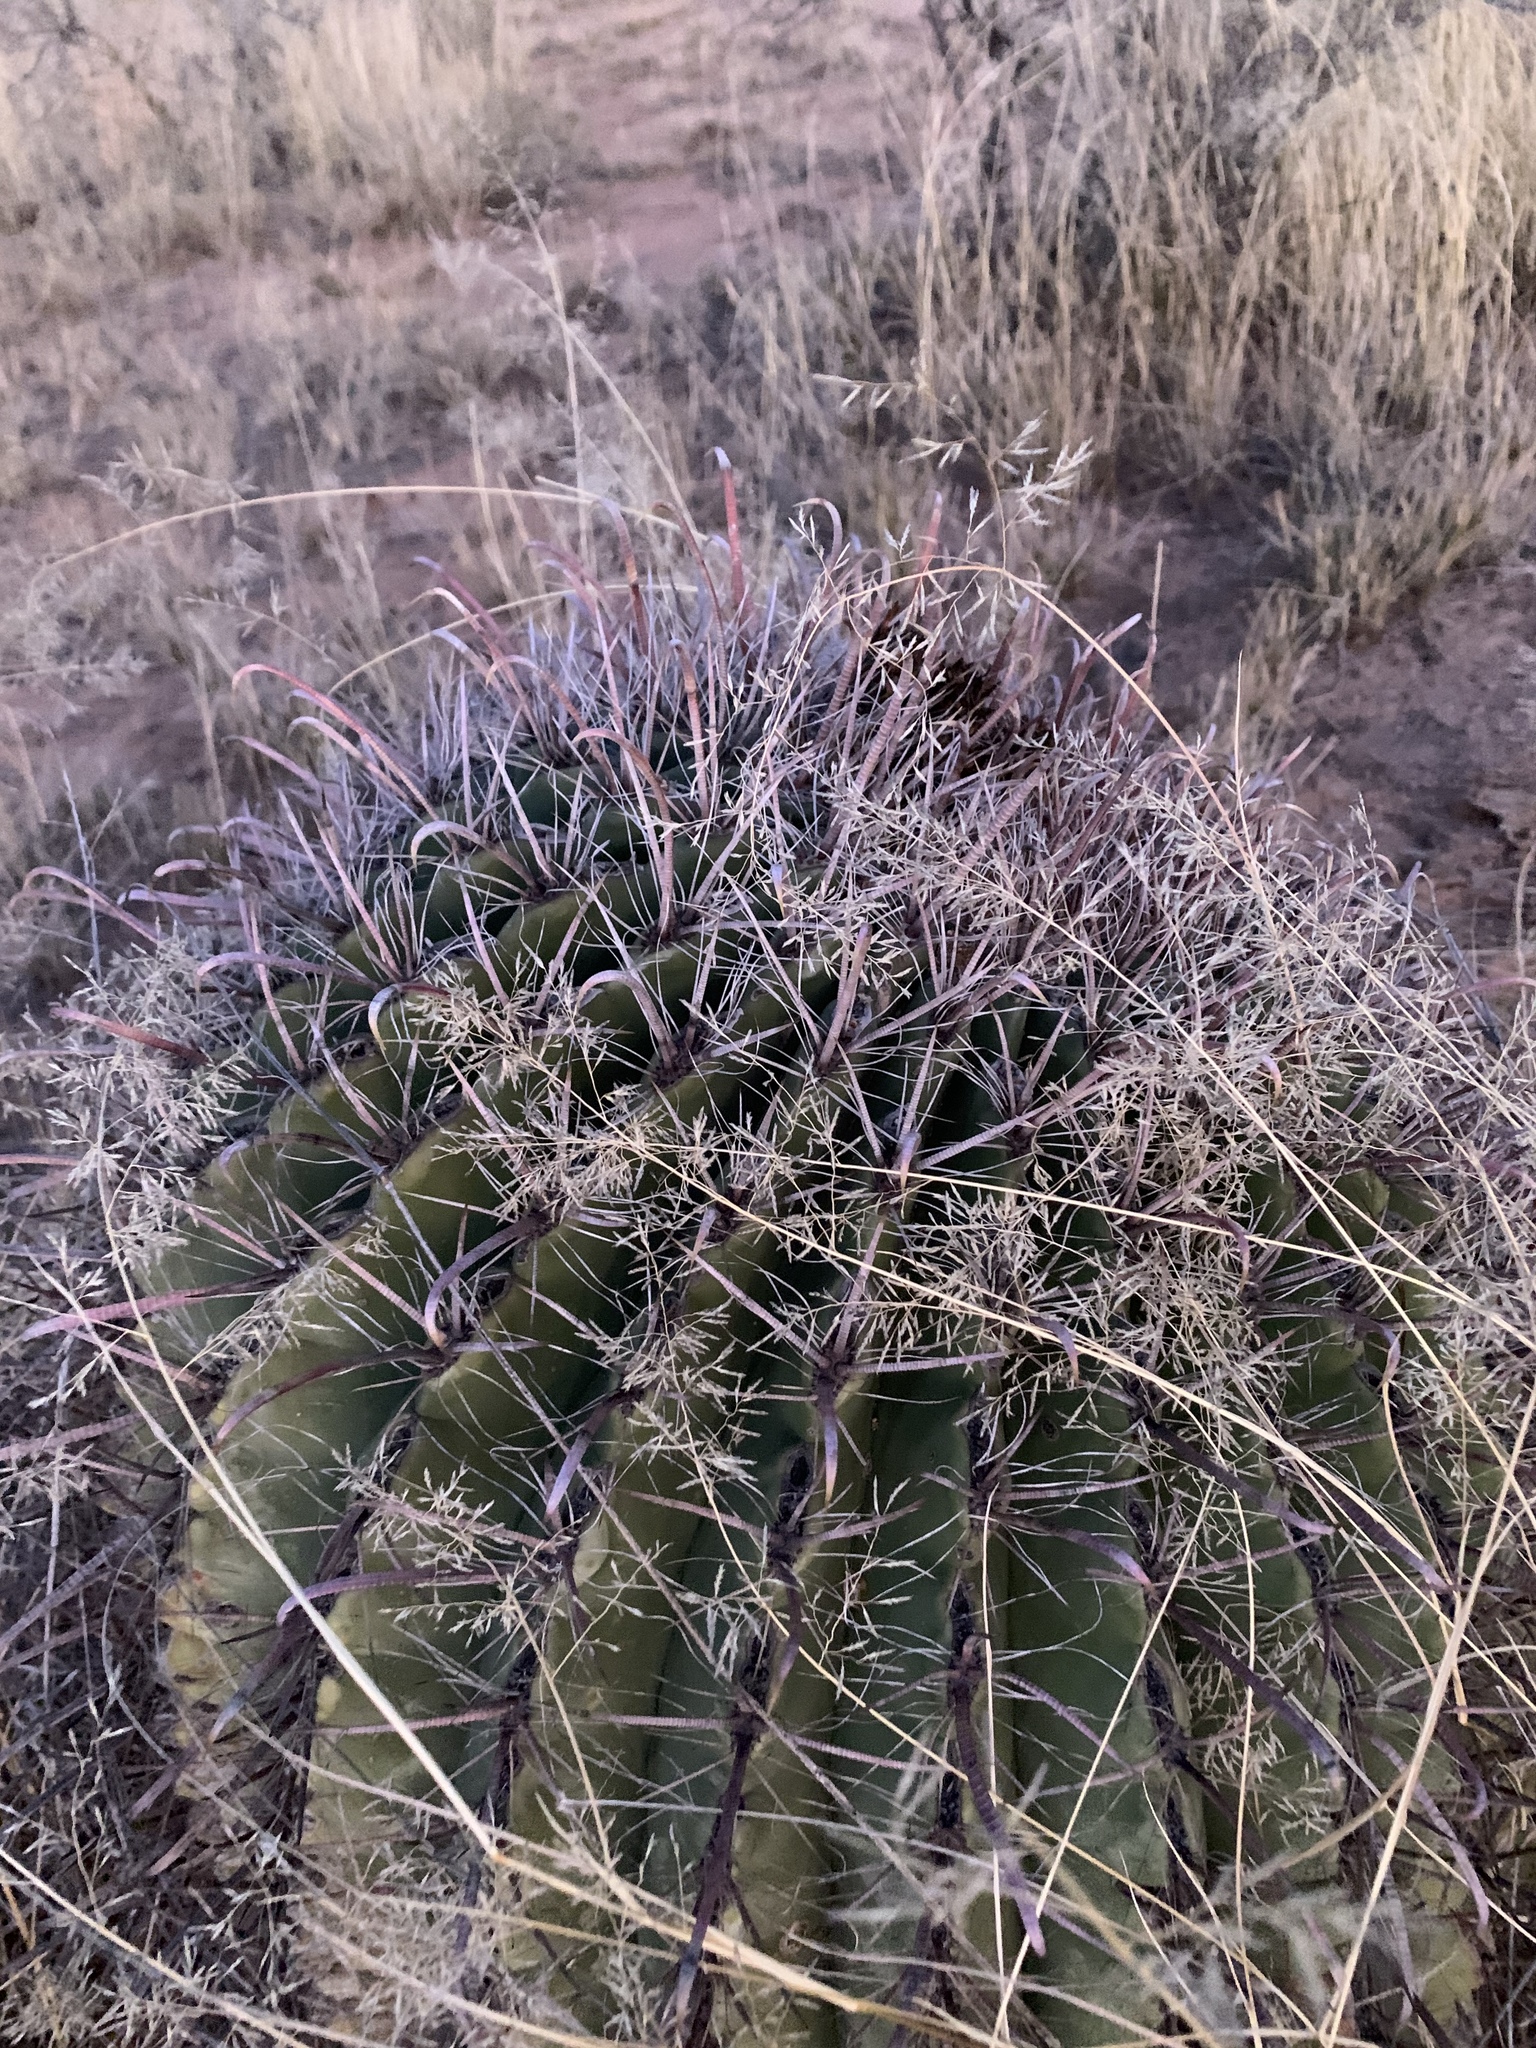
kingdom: Plantae
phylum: Tracheophyta
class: Magnoliopsida
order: Caryophyllales
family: Cactaceae
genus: Ferocactus
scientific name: Ferocactus wislizeni
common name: Candy barrel cactus
